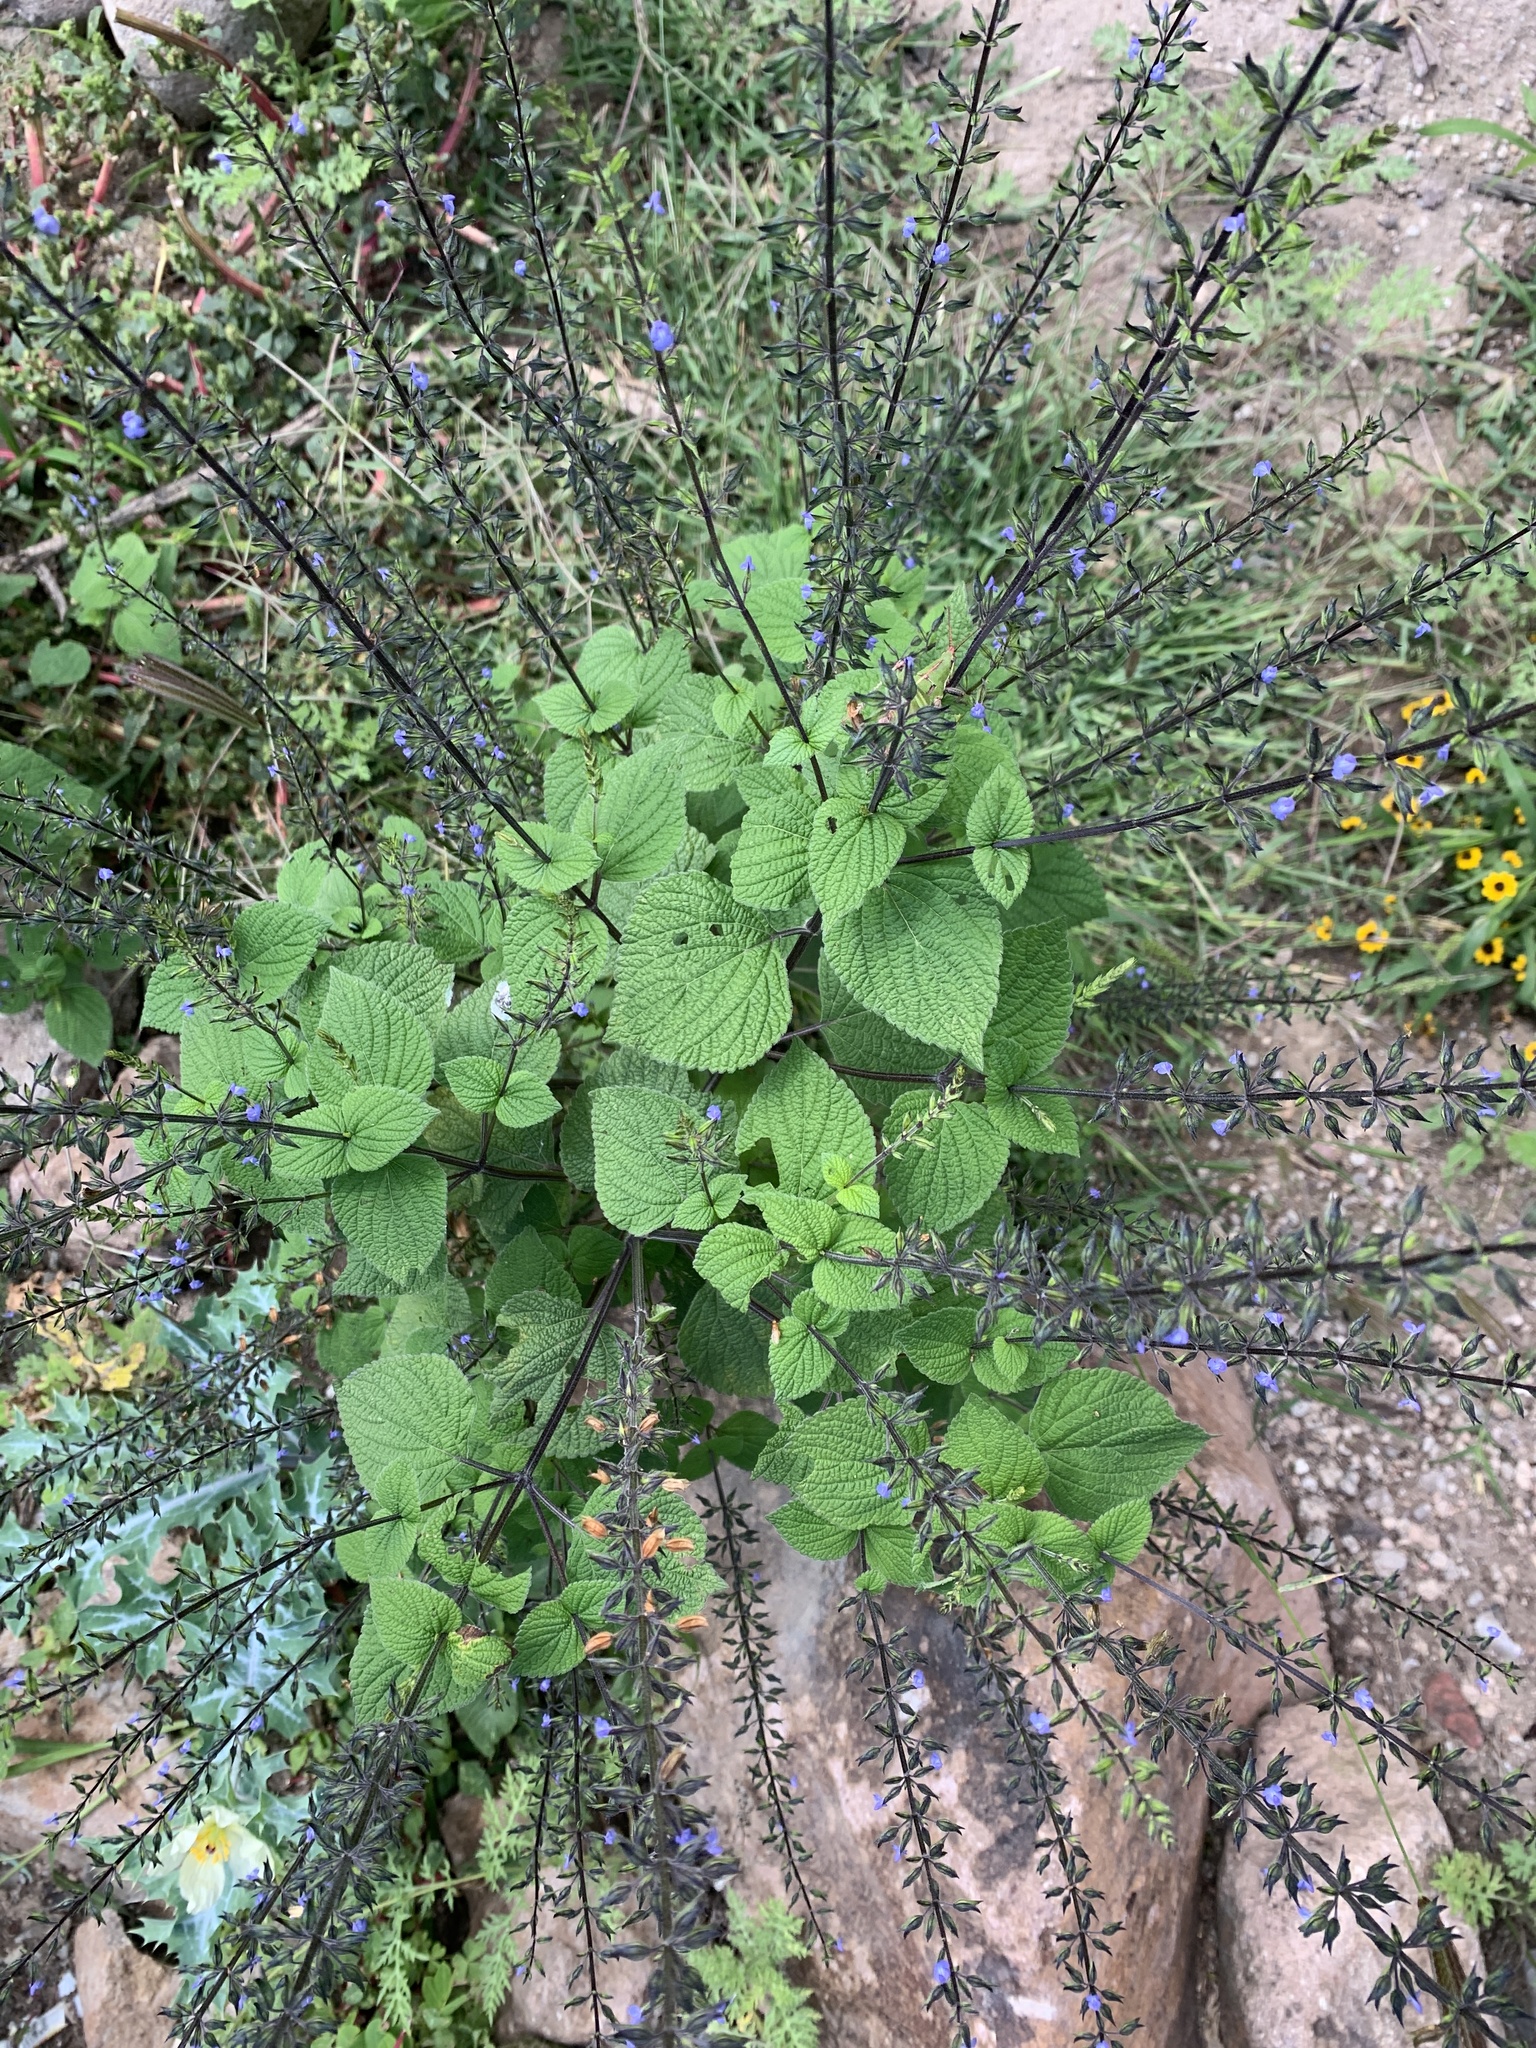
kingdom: Plantae
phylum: Tracheophyta
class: Magnoliopsida
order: Lamiales
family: Lamiaceae
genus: Salvia
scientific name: Salvia tiliifolia
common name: Lindenleaf sage
